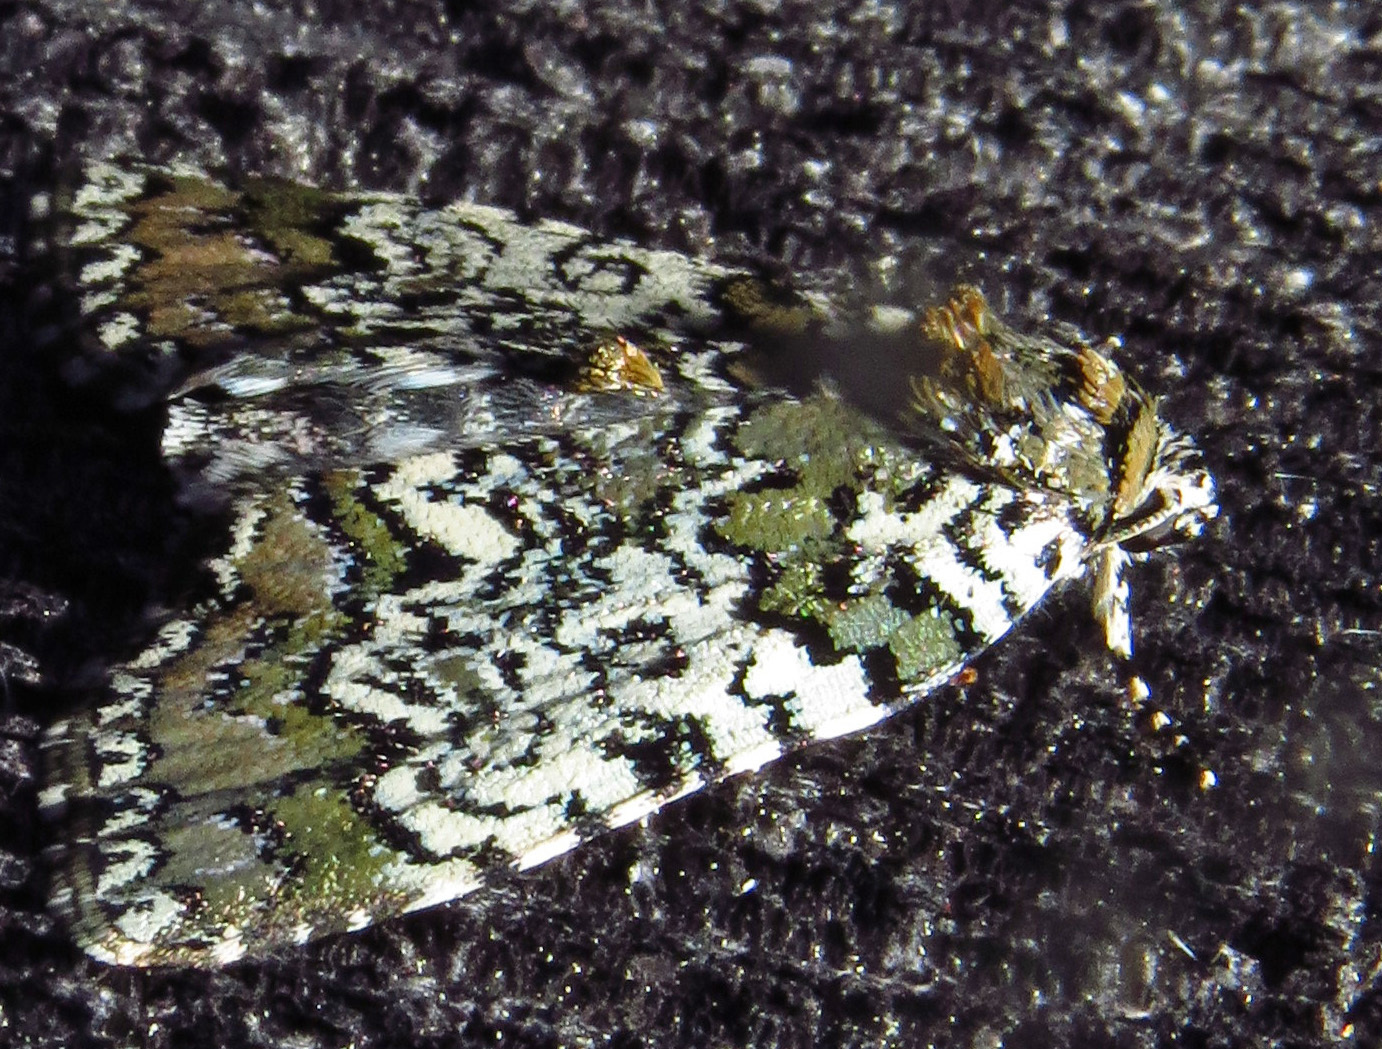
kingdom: Animalia
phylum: Arthropoda
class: Insecta
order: Lepidoptera
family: Noctuidae
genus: Cerma
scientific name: Cerma cora
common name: Bird dropping moth
